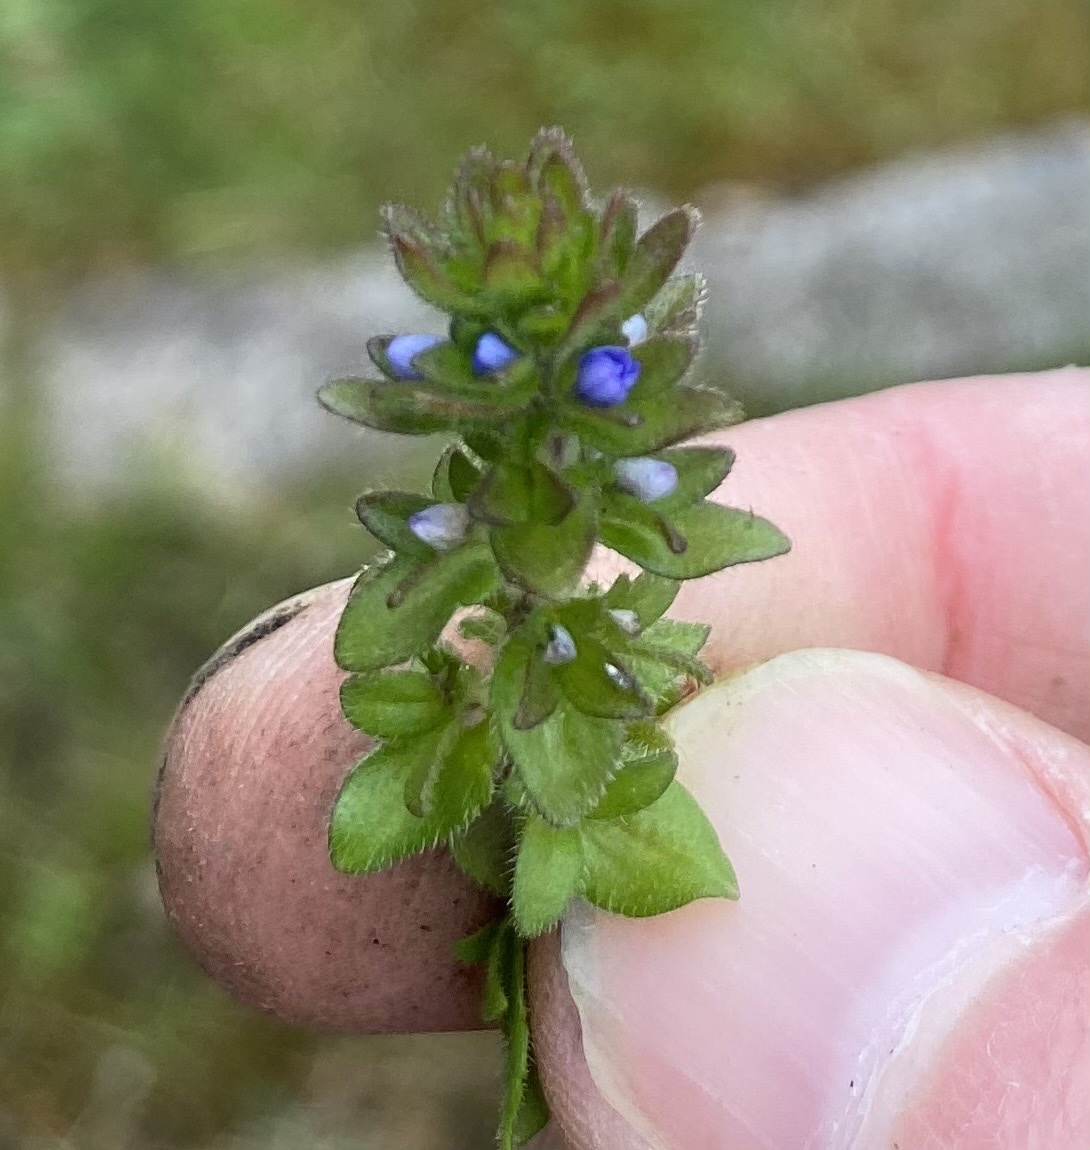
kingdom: Plantae
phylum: Tracheophyta
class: Magnoliopsida
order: Lamiales
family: Plantaginaceae
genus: Veronica
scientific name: Veronica arvensis
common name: Corn speedwell
